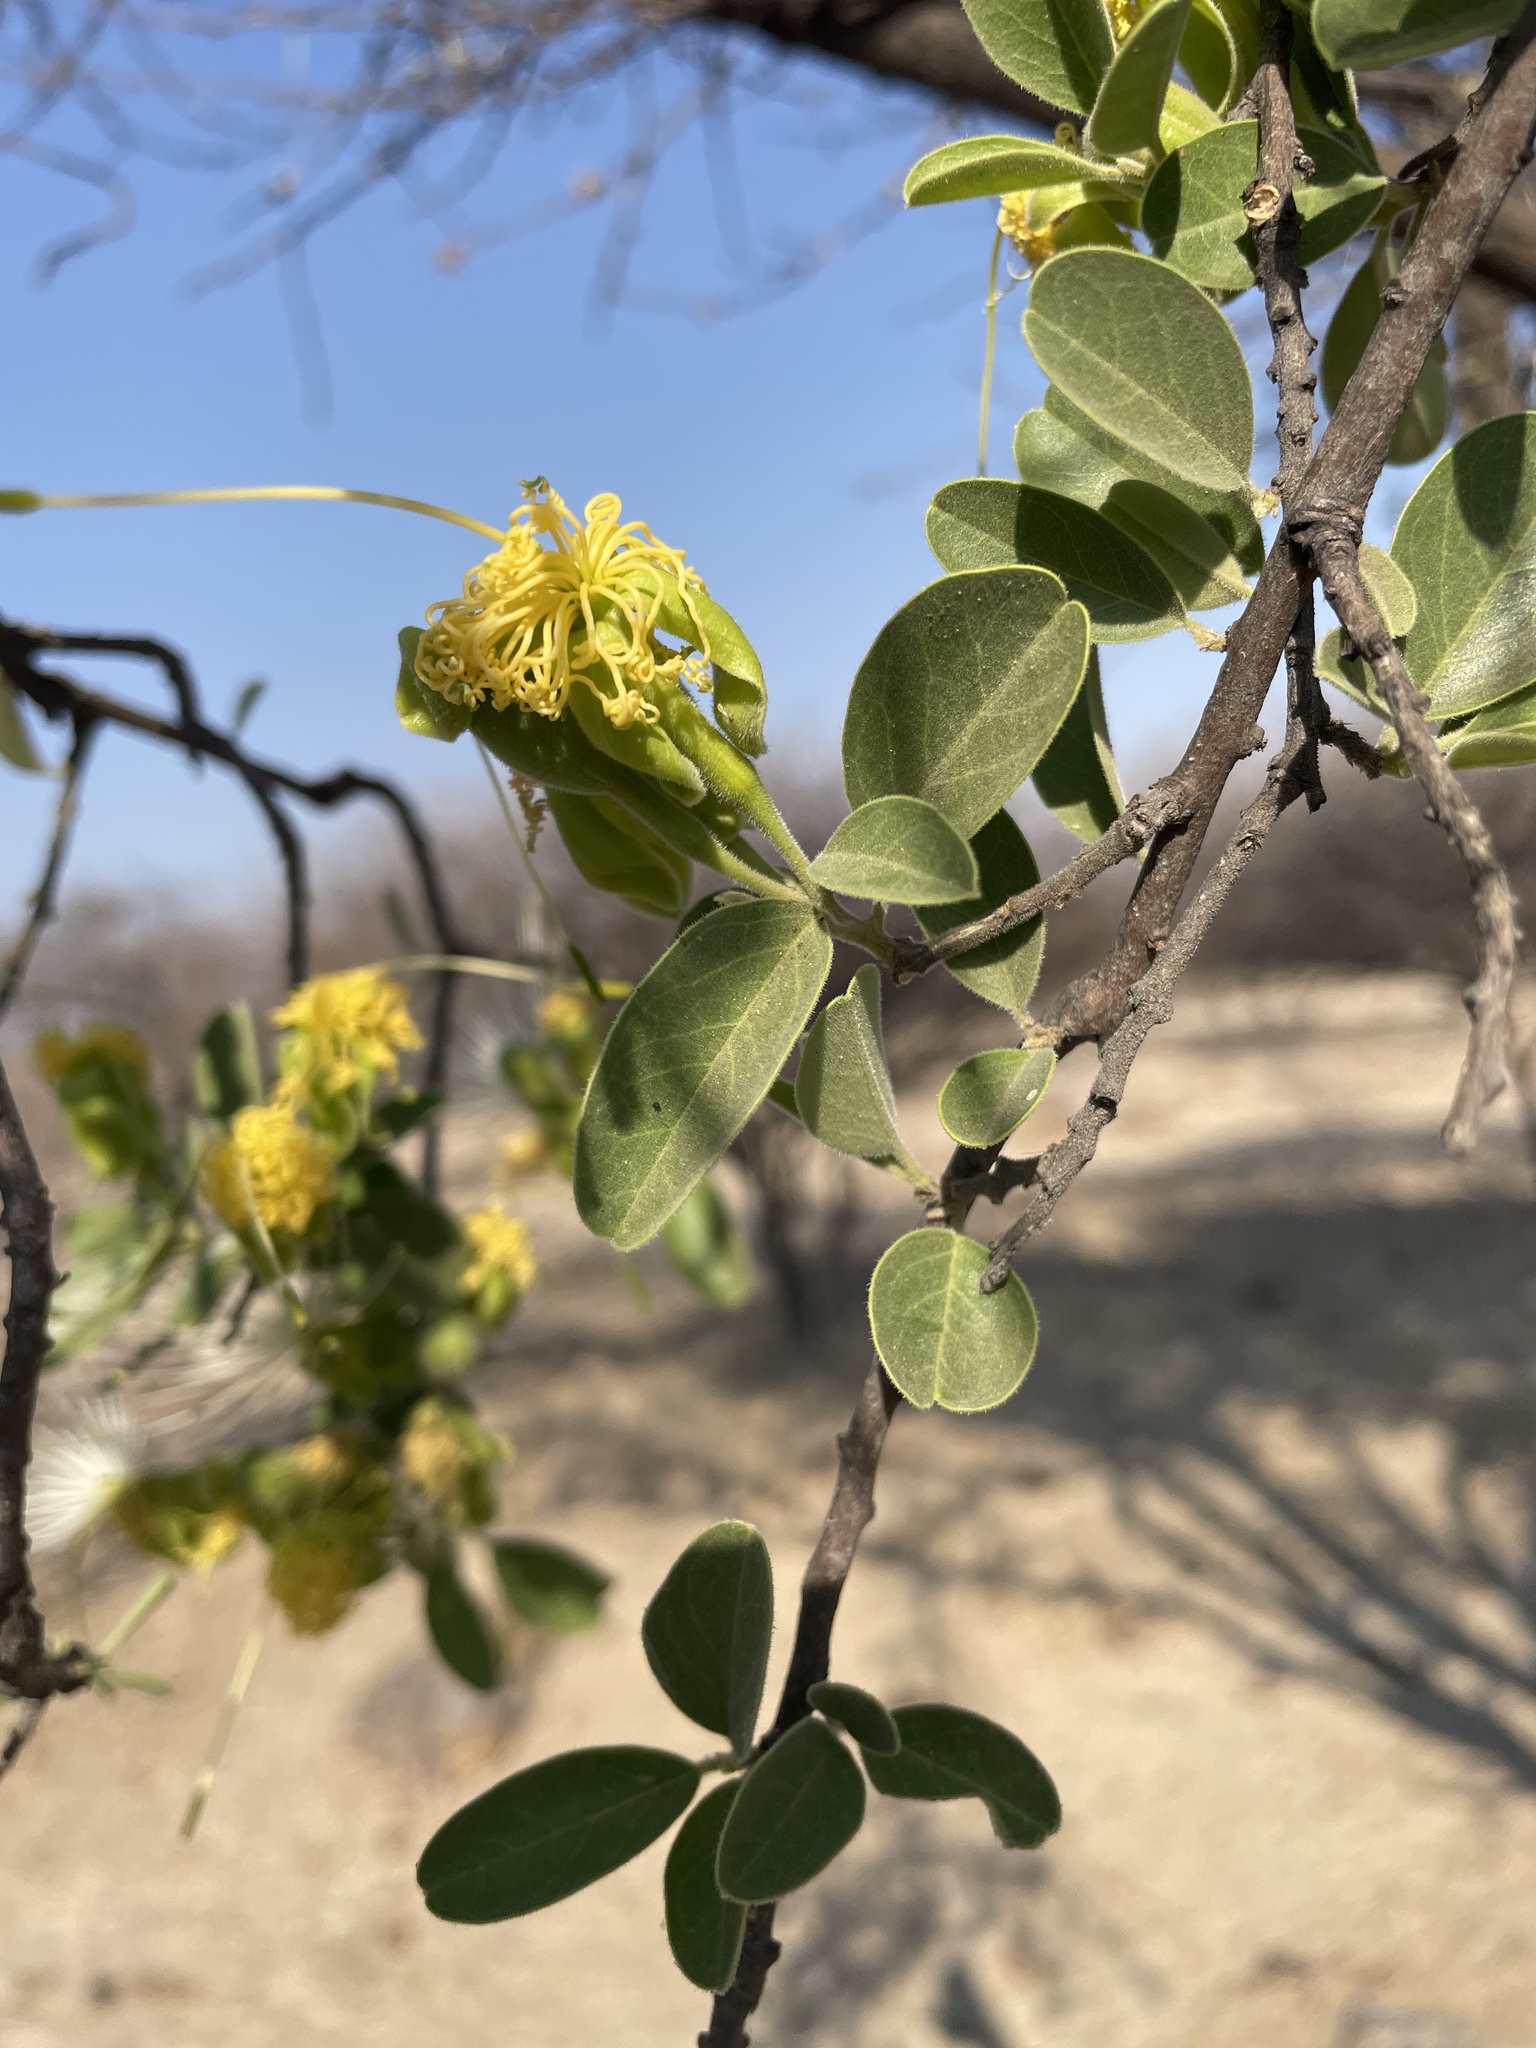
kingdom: Plantae
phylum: Tracheophyta
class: Magnoliopsida
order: Brassicales
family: Capparaceae
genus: Maerua
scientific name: Maerua angolensis
